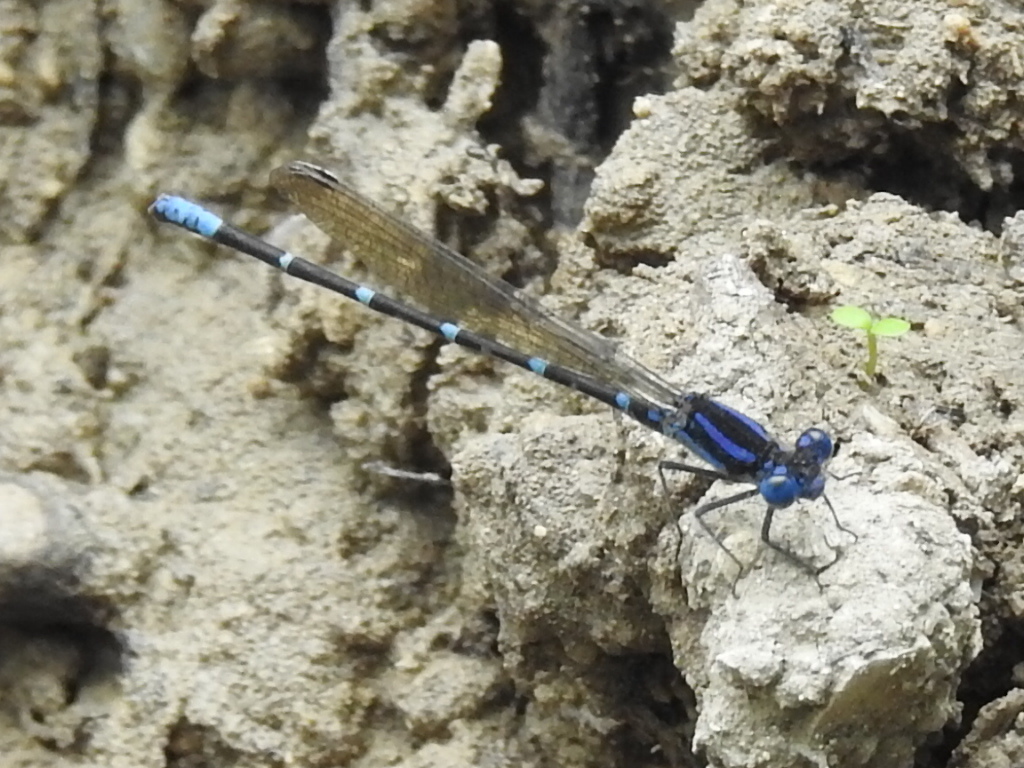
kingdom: Animalia
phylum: Arthropoda
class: Insecta
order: Odonata
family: Coenagrionidae
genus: Argia
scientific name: Argia sedula
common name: Blue-ringed dancer
